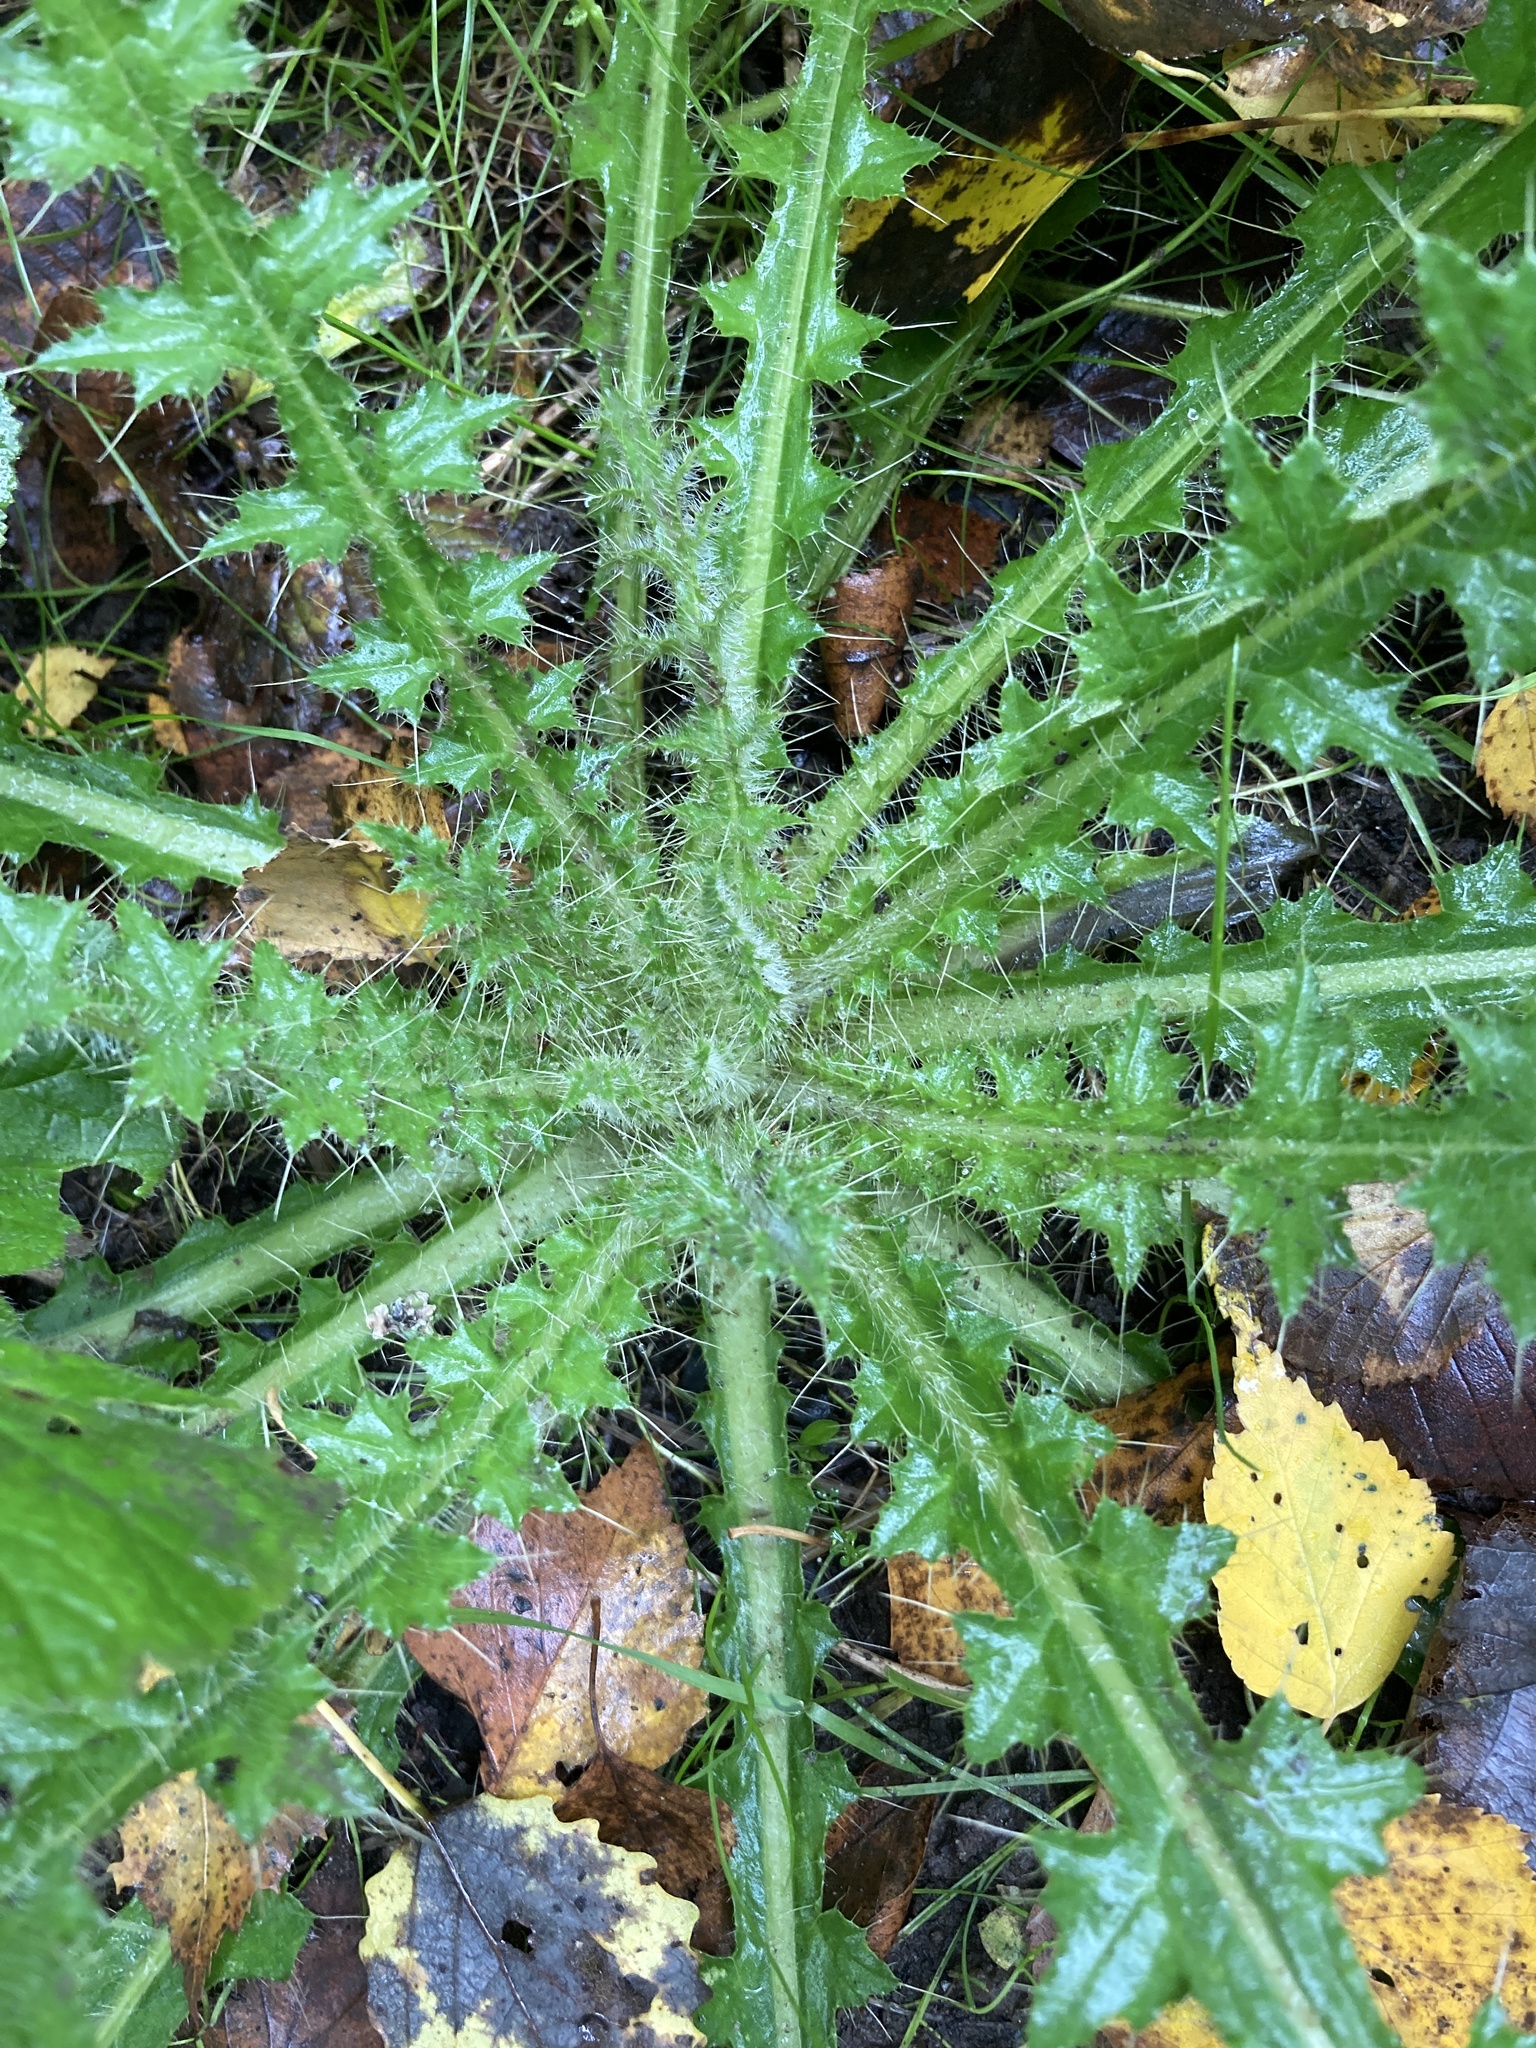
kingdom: Plantae
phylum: Tracheophyta
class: Magnoliopsida
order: Asterales
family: Asteraceae
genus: Cirsium
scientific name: Cirsium palustre
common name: Marsh thistle
